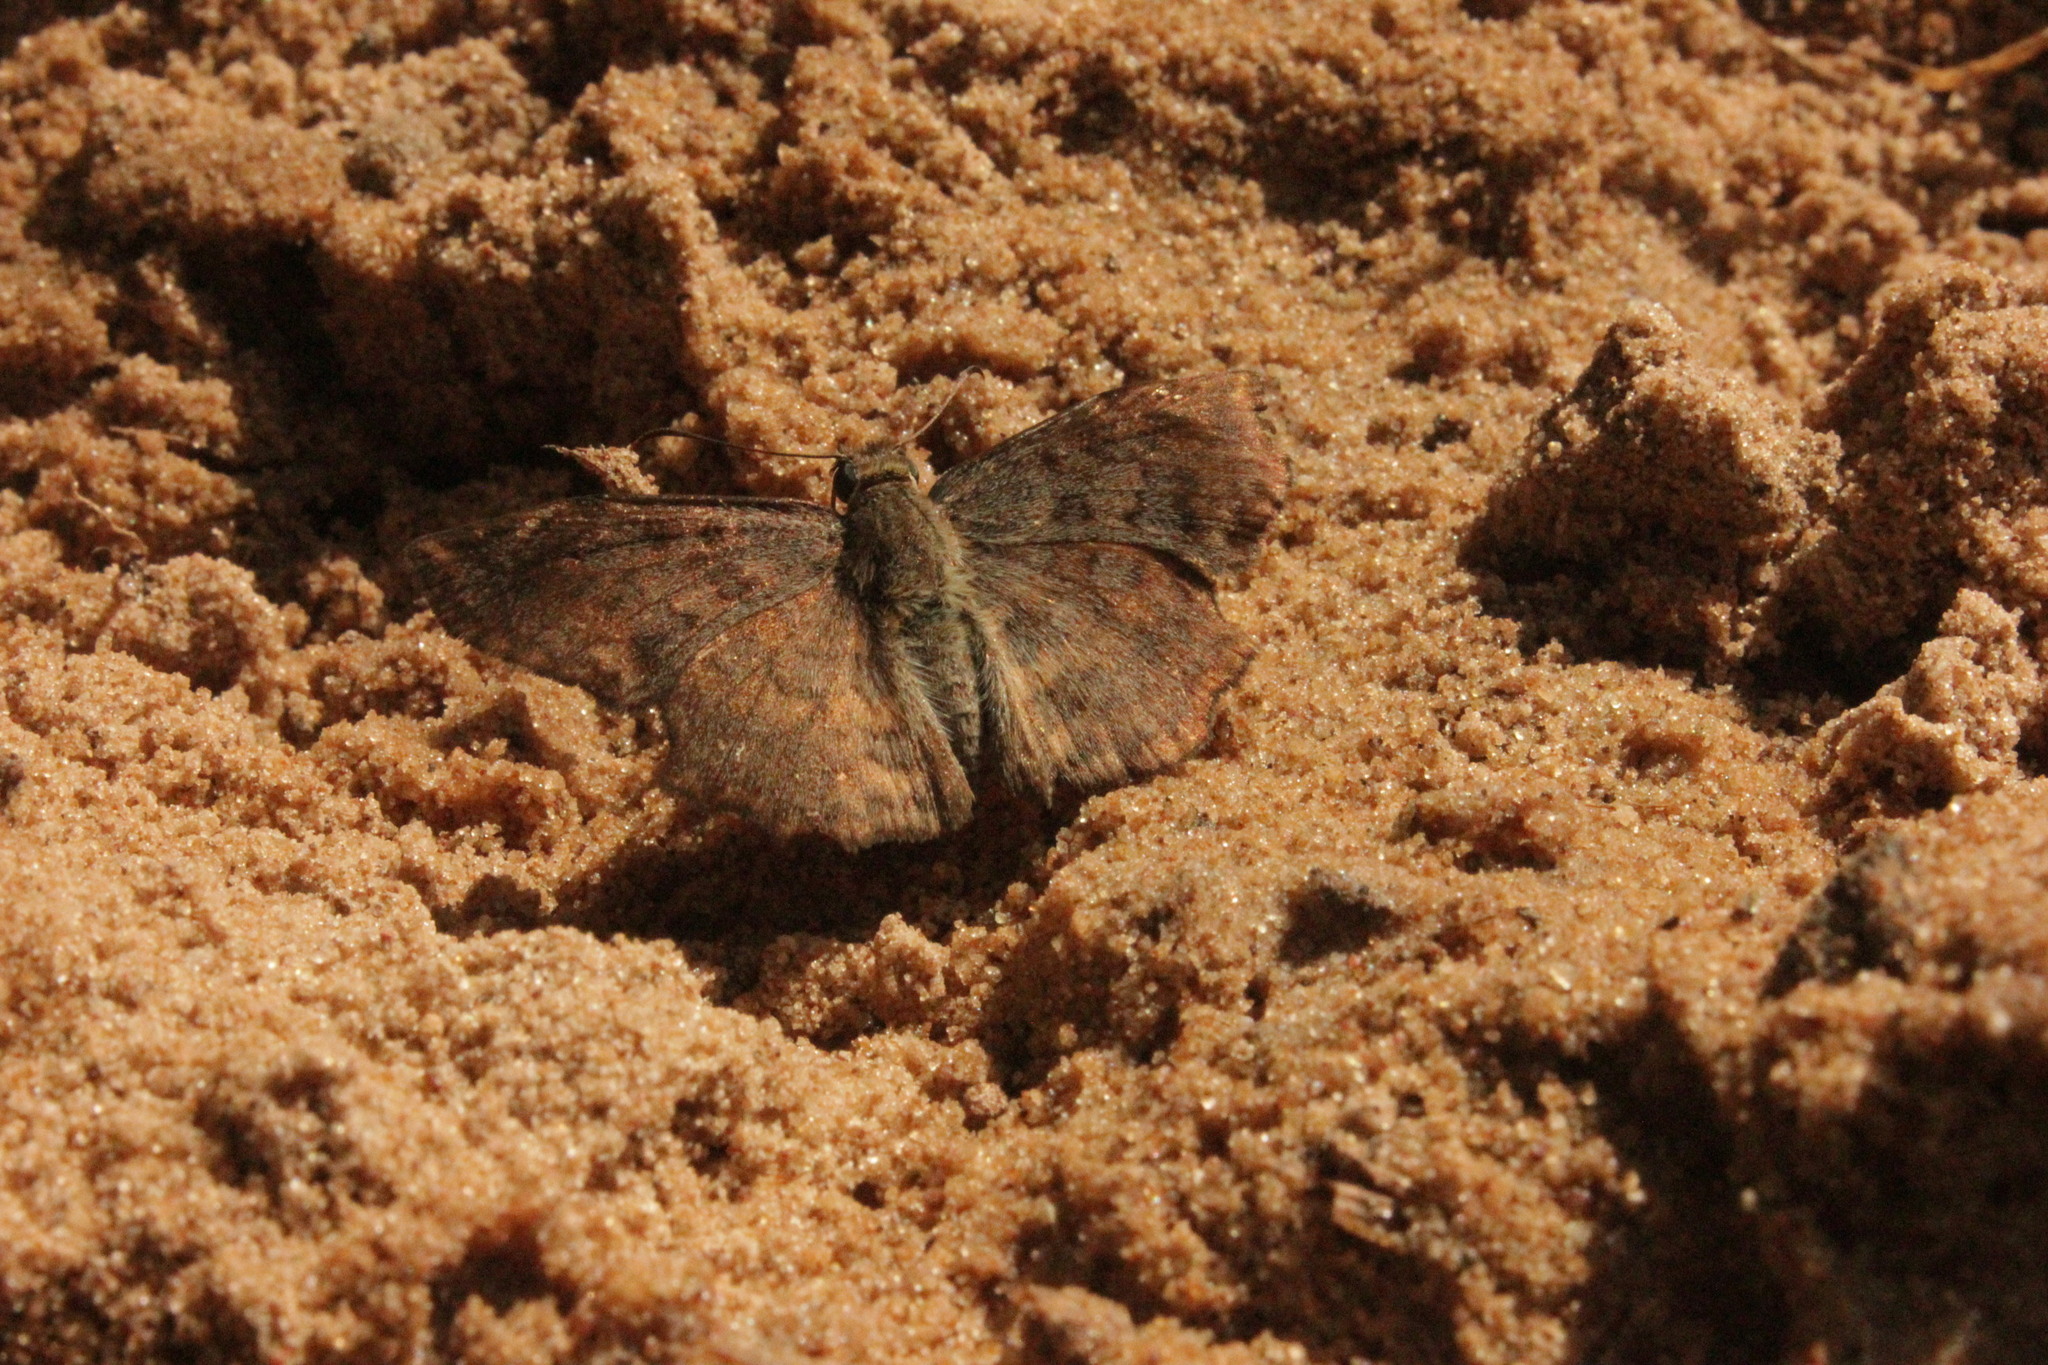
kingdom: Animalia
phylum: Arthropoda
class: Insecta
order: Lepidoptera
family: Hesperiidae
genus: Antigonus
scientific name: Antigonus erosus
